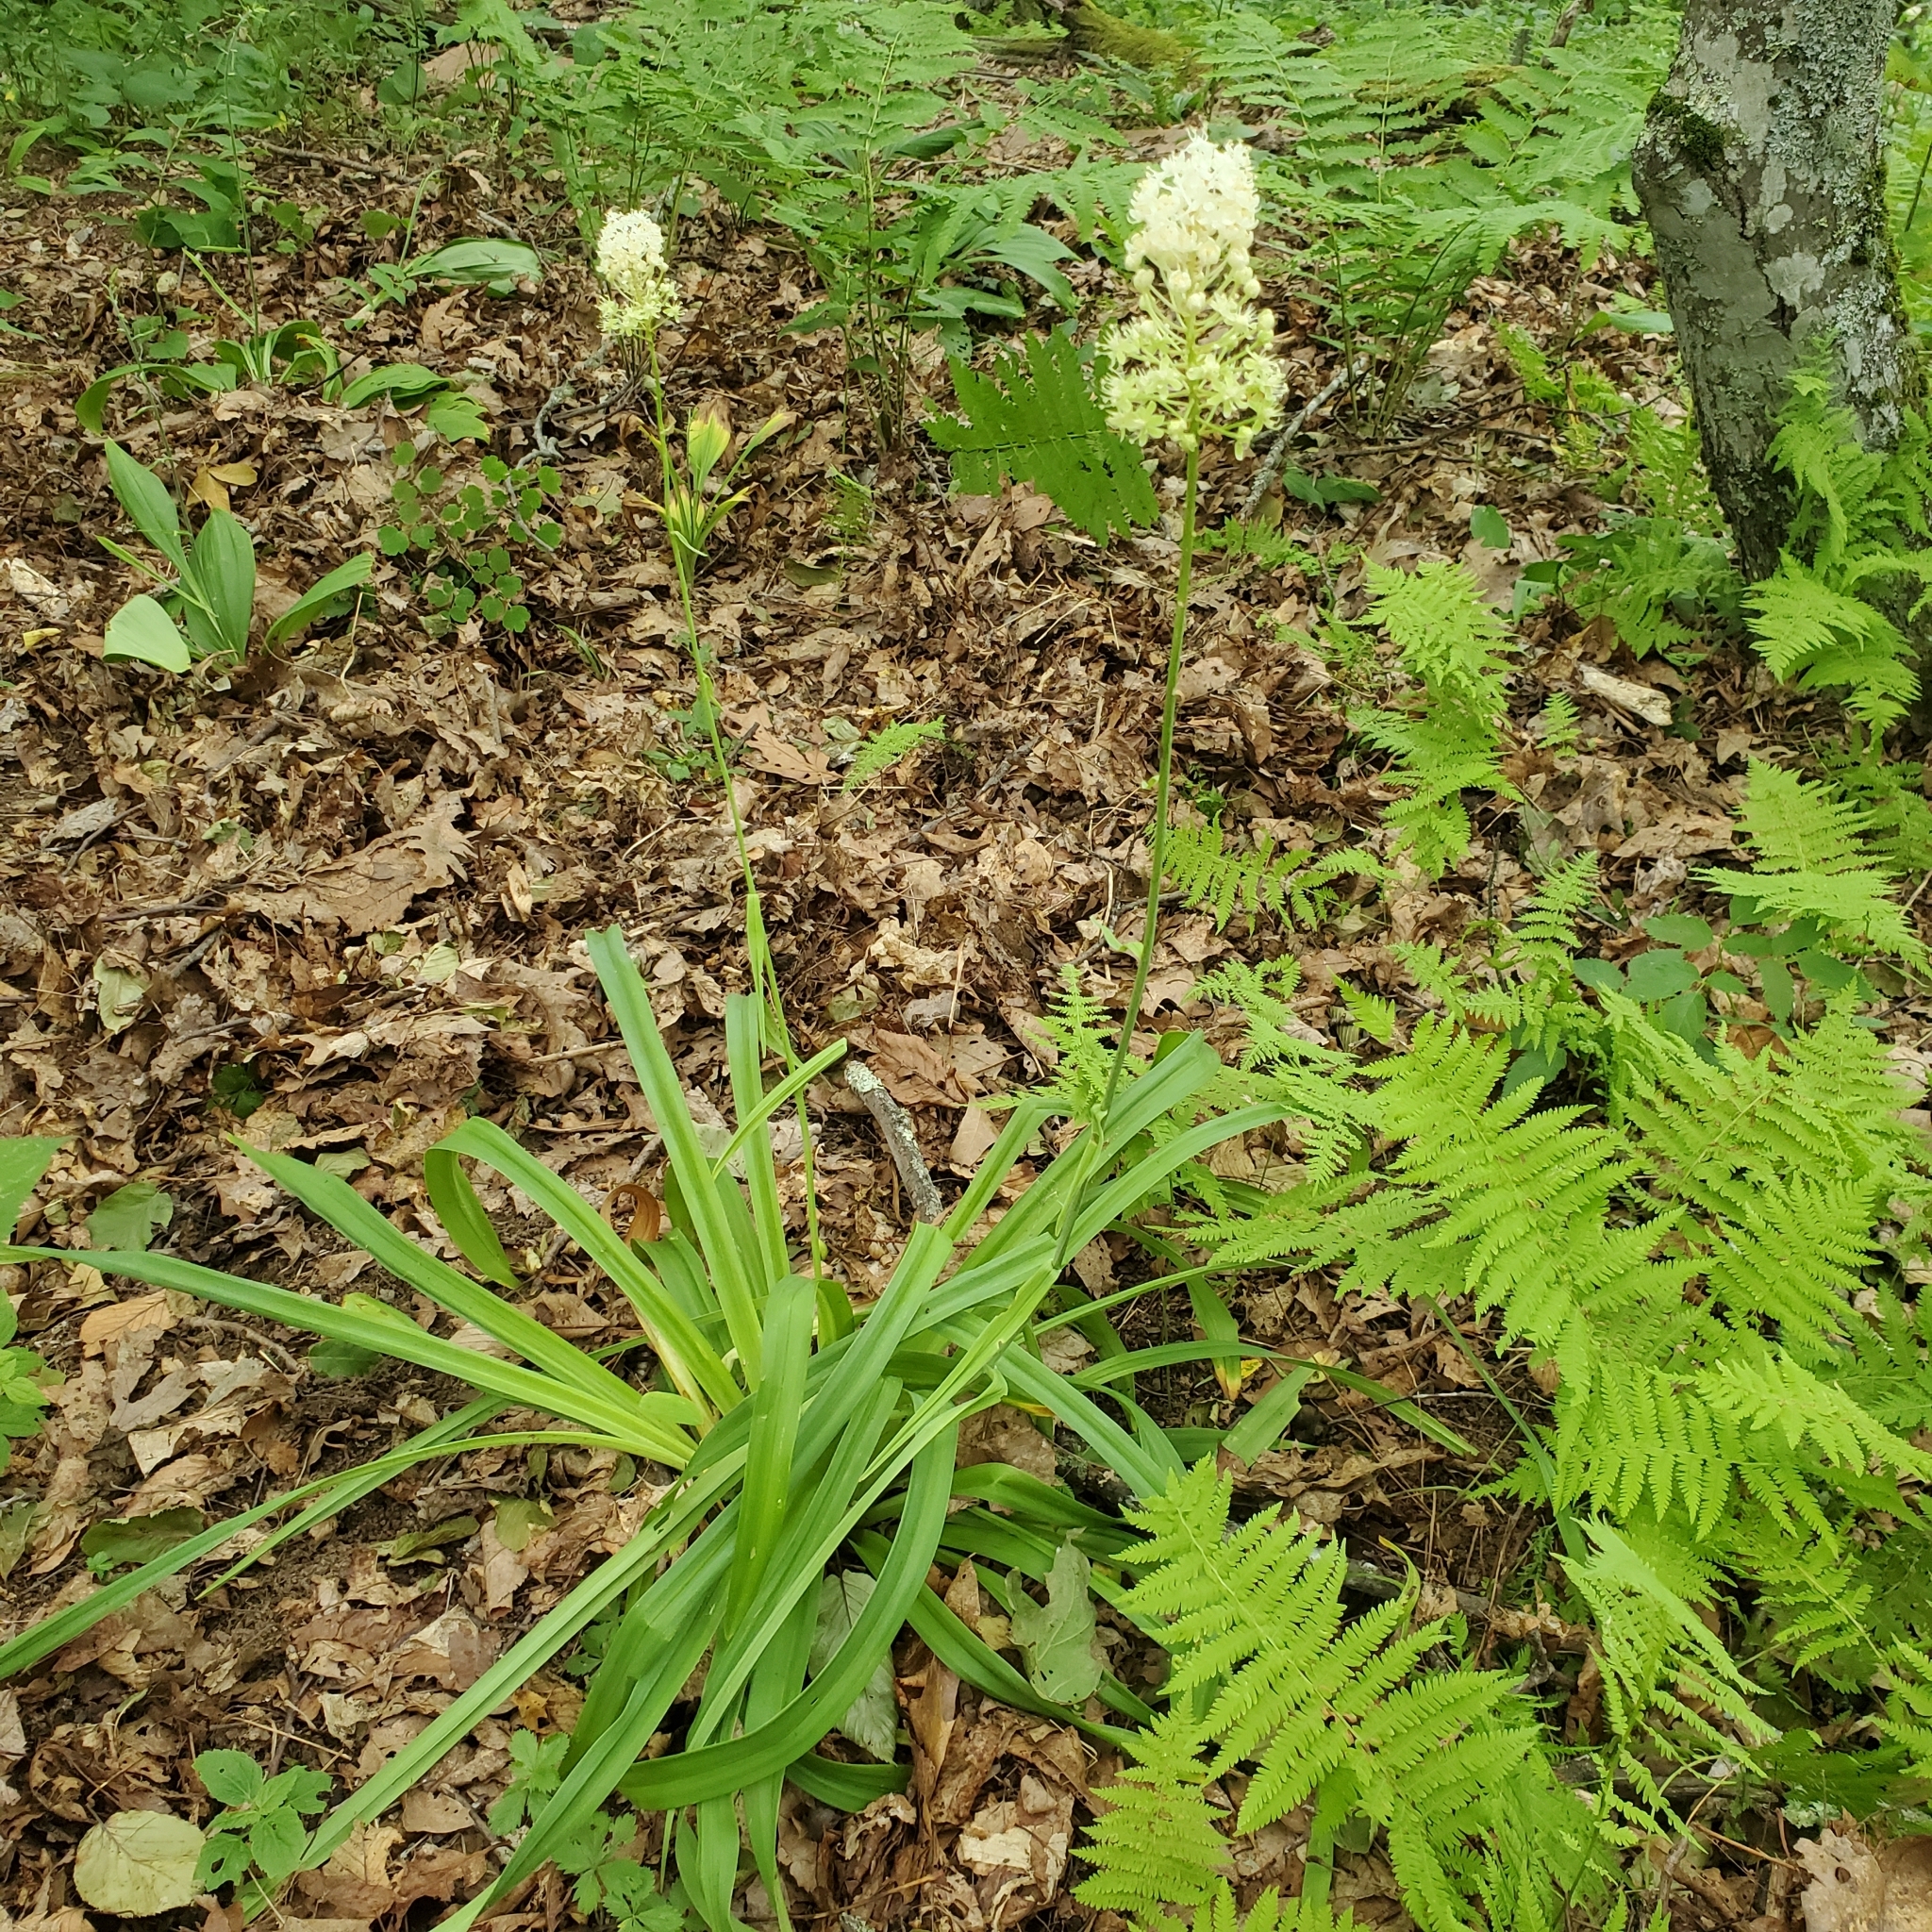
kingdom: Plantae
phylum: Tracheophyta
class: Liliopsida
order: Liliales
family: Melanthiaceae
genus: Amianthium
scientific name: Amianthium muscitoxicum
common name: Fly-poison
